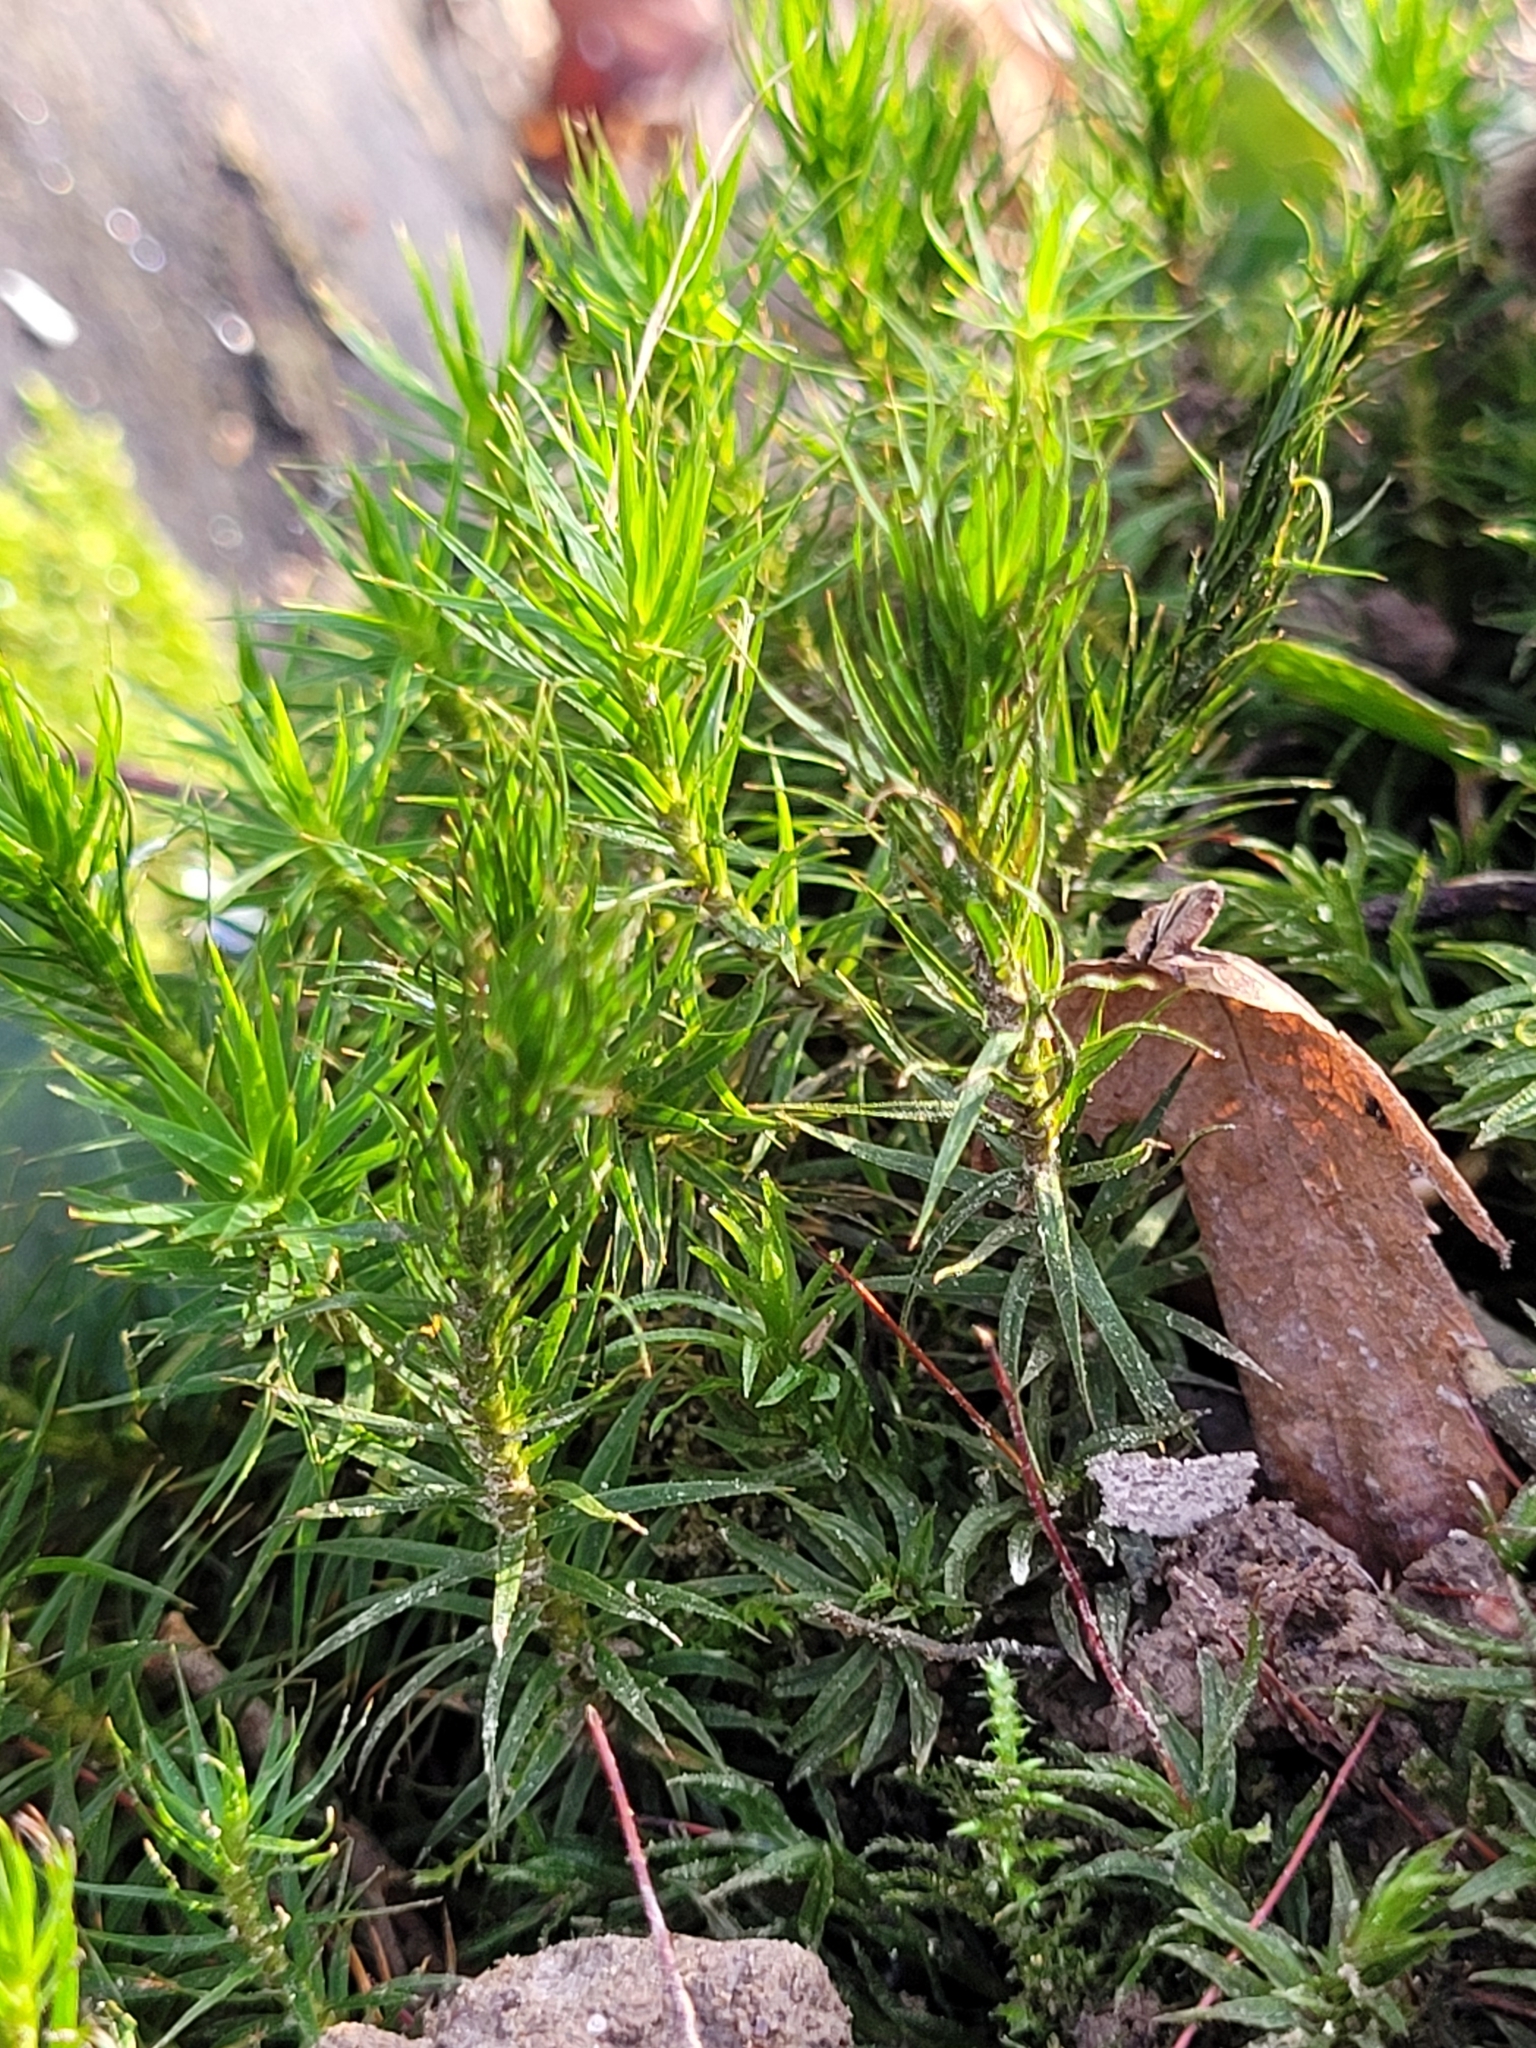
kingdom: Plantae
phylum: Bryophyta
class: Polytrichopsida
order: Polytrichales
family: Polytrichaceae
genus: Polytrichum
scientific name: Polytrichum formosum
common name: Bank haircap moss
